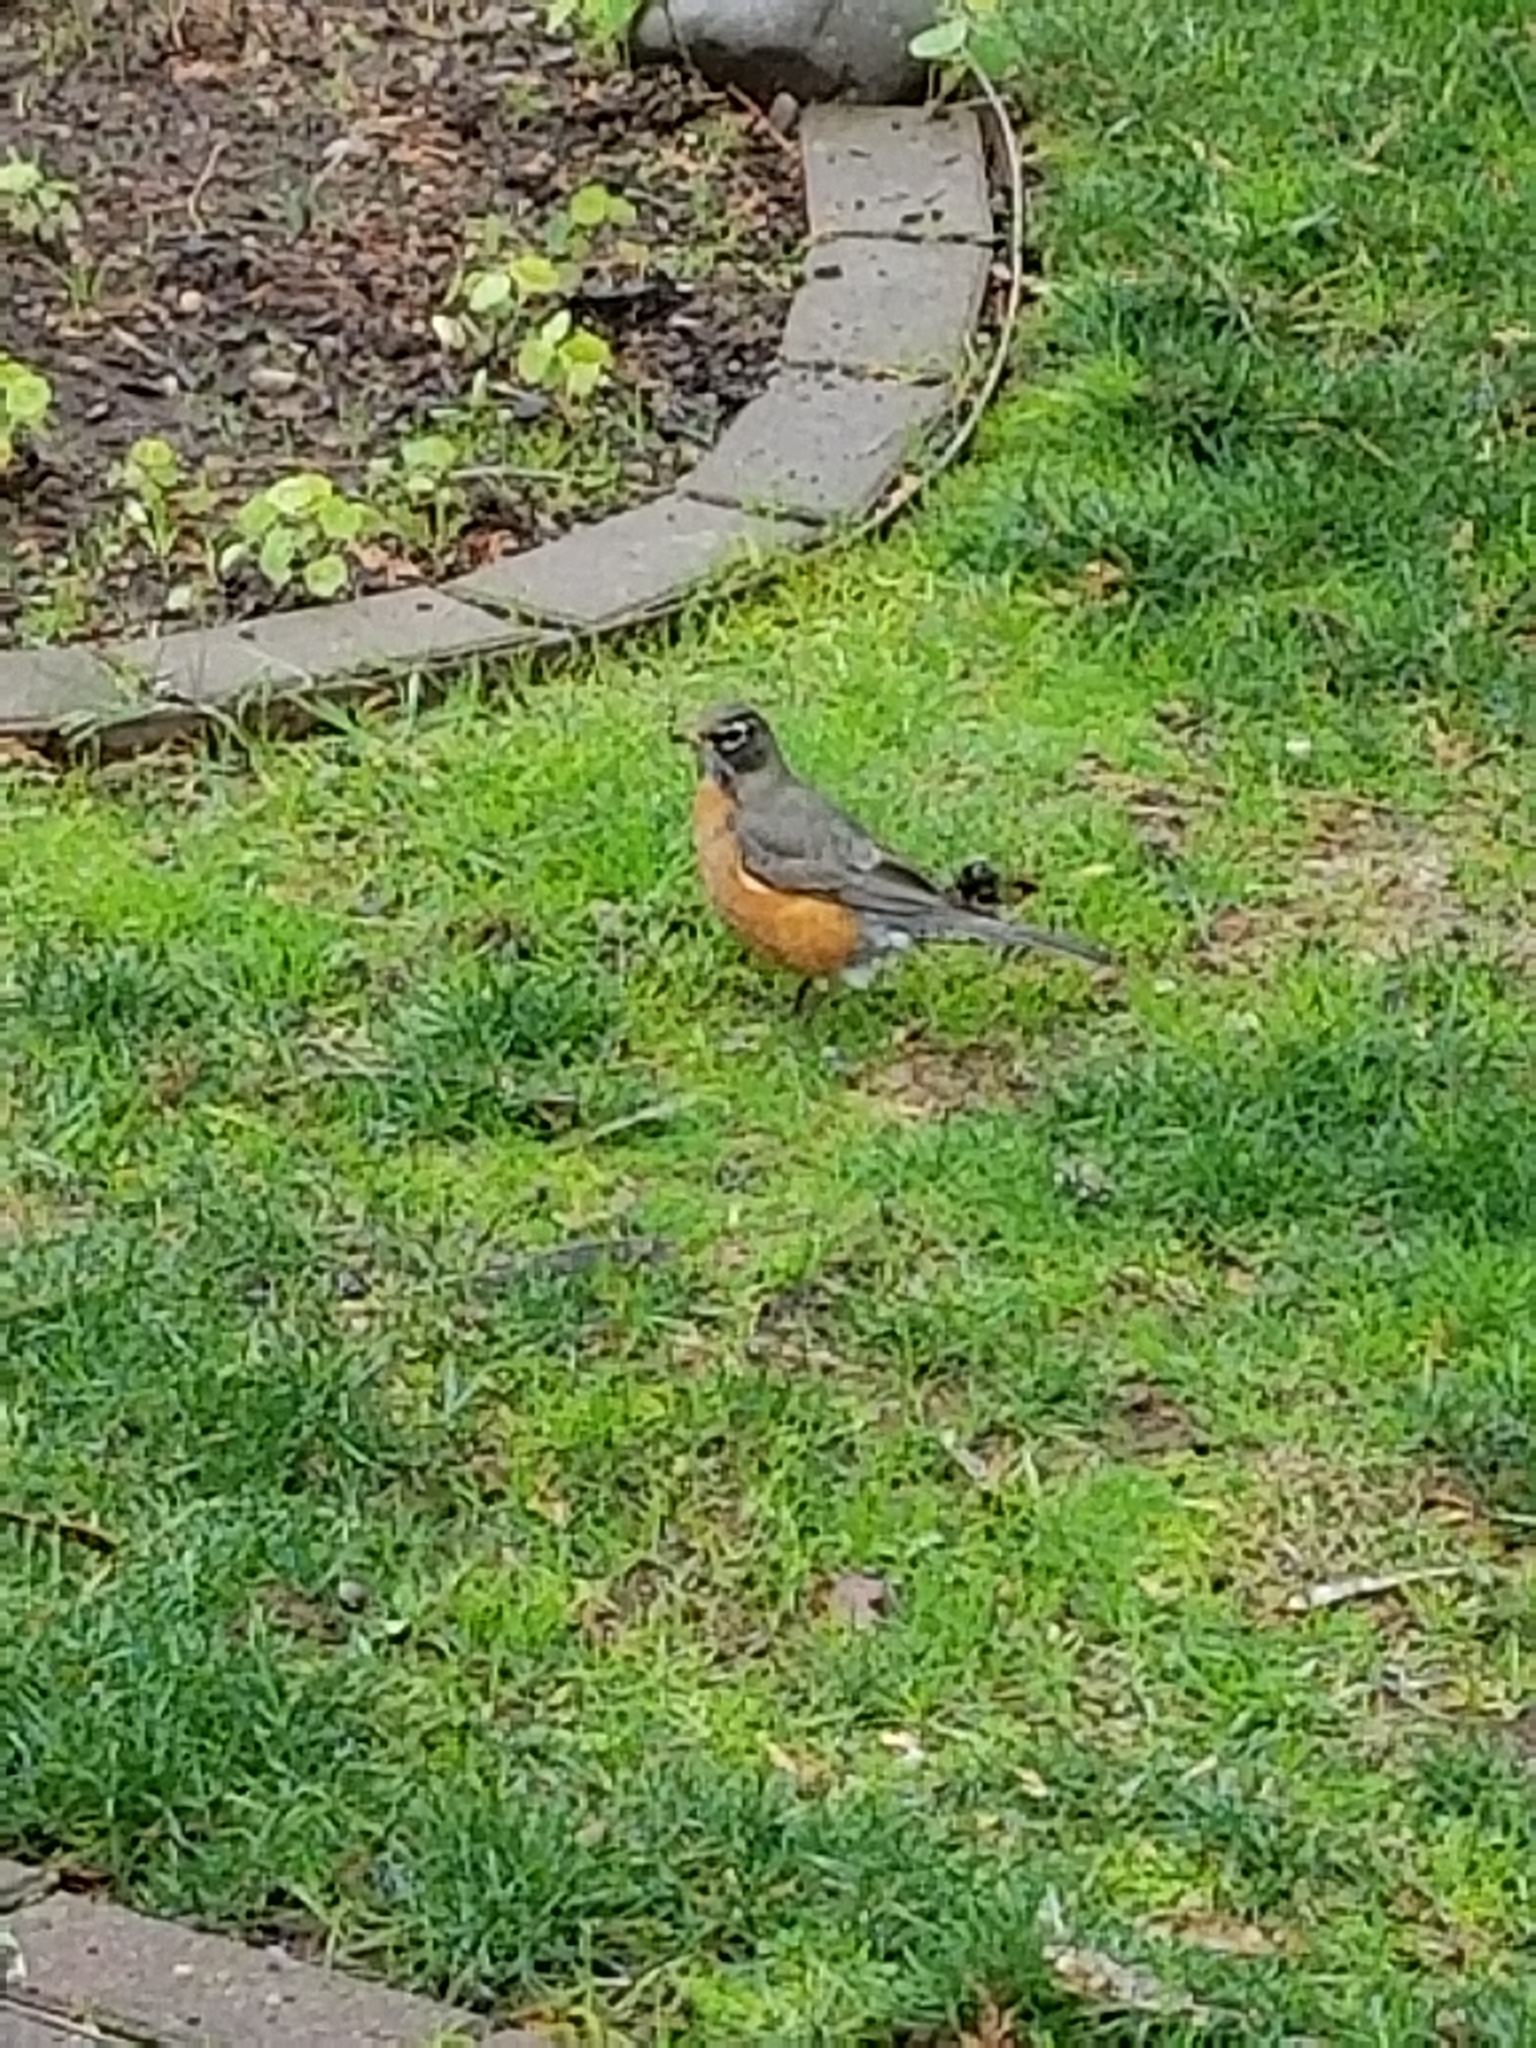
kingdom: Animalia
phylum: Chordata
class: Aves
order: Passeriformes
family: Turdidae
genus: Turdus
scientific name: Turdus migratorius
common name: American robin
